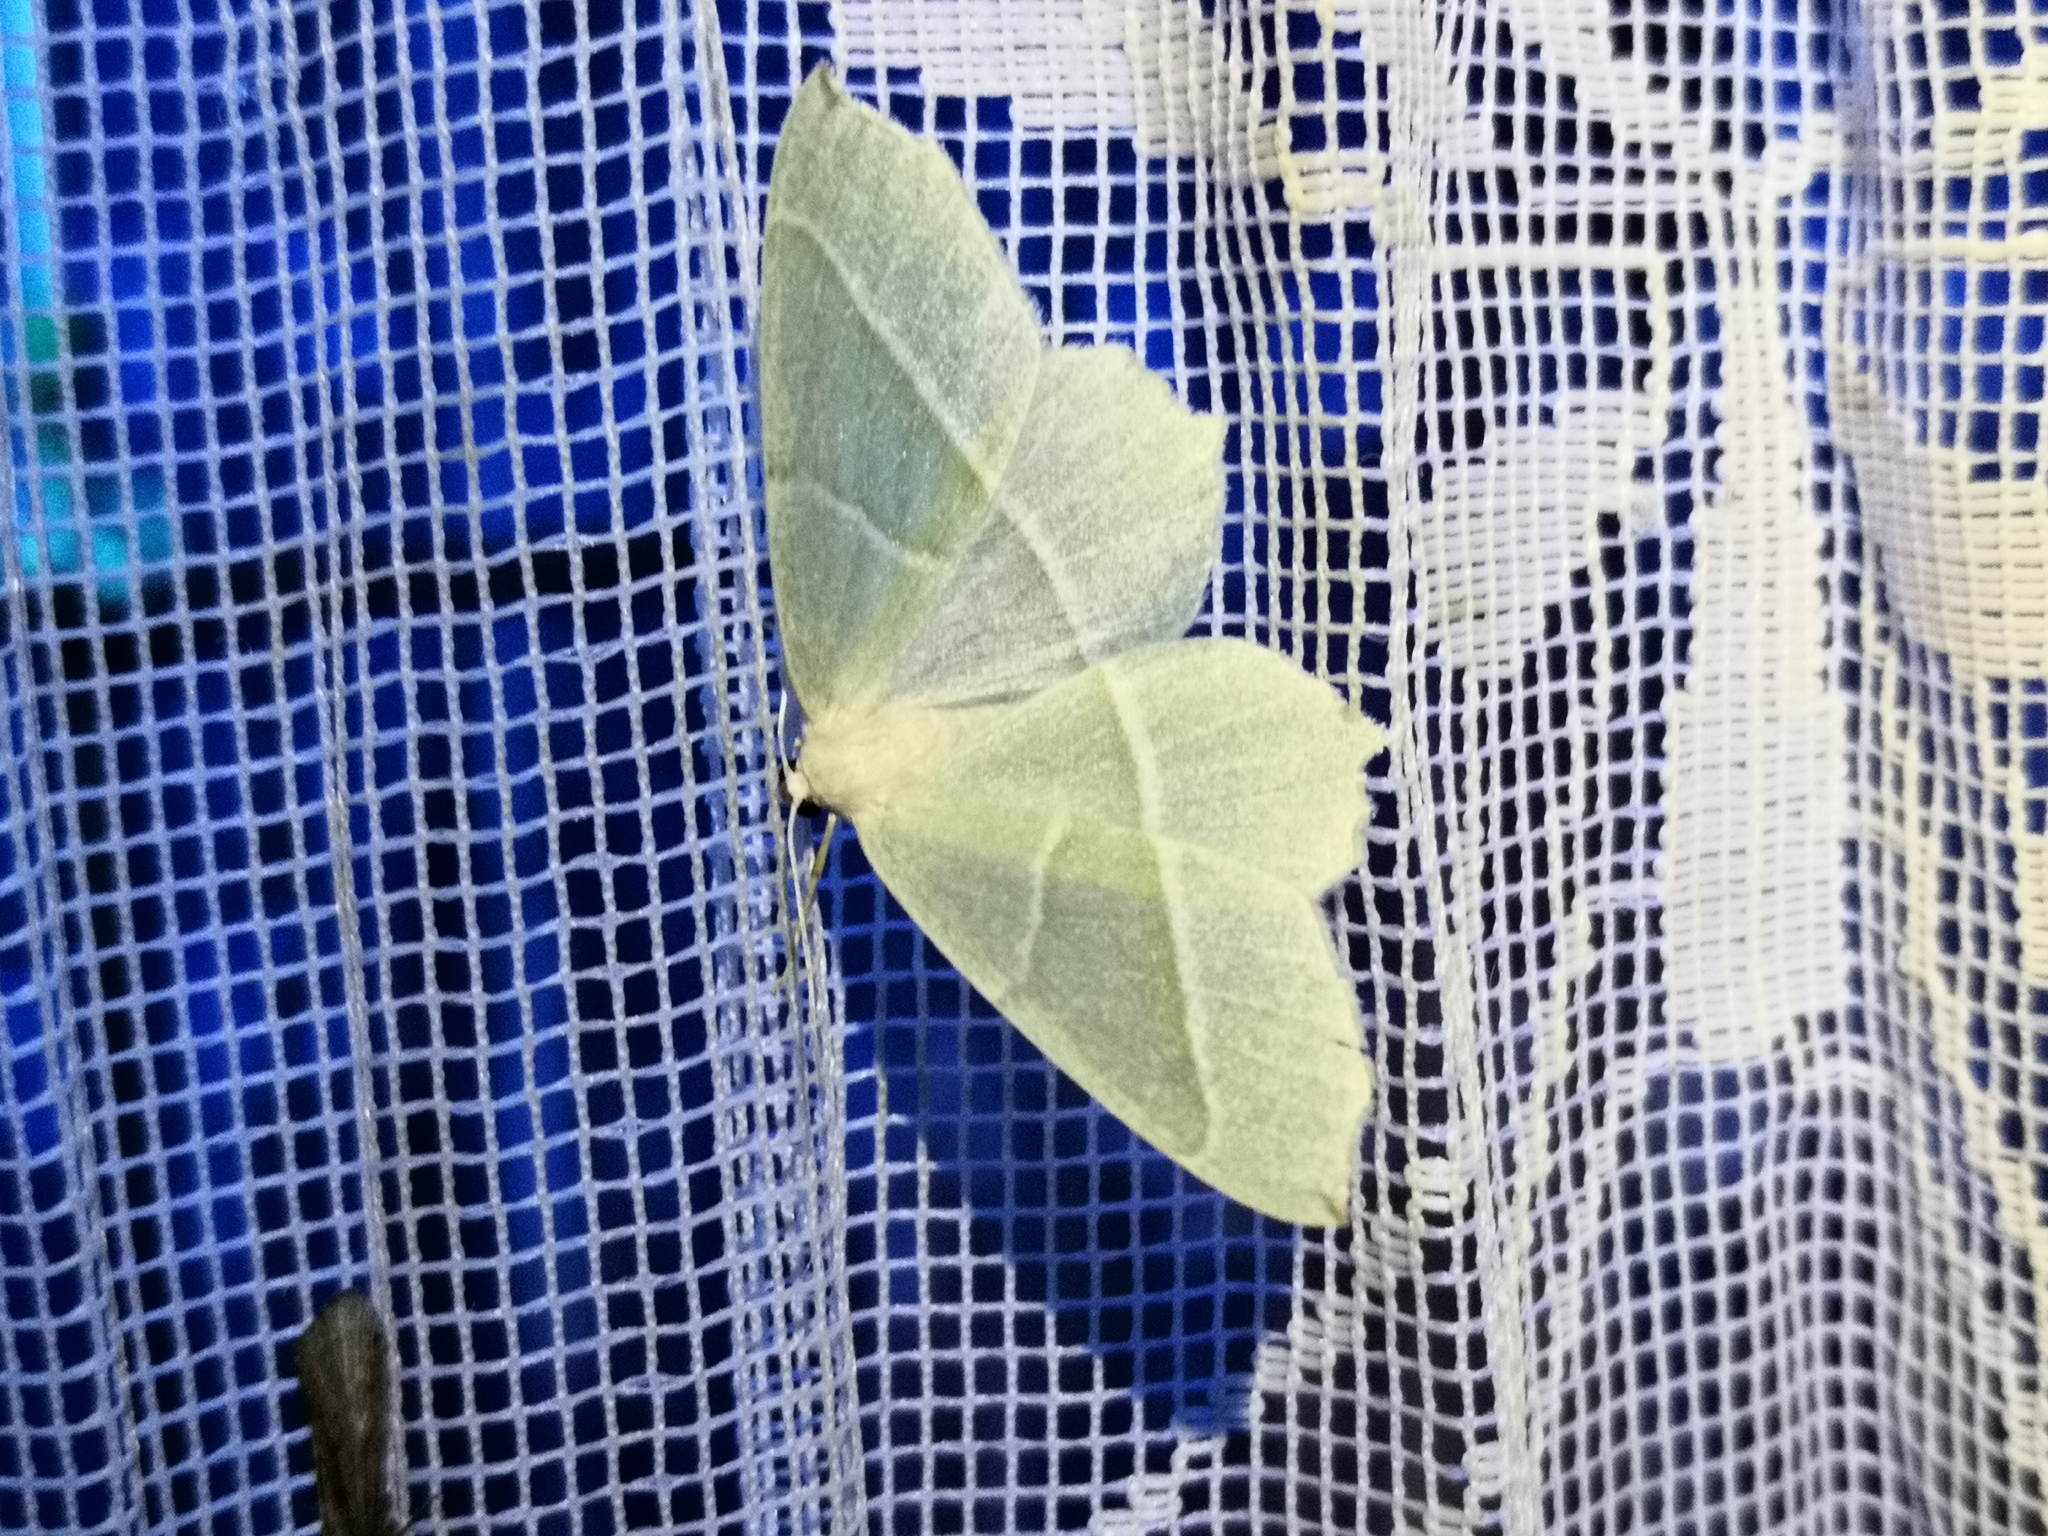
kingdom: Animalia
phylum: Arthropoda
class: Insecta
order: Lepidoptera
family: Geometridae
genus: Campaea
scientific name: Campaea margaritaria
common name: Light emerald
